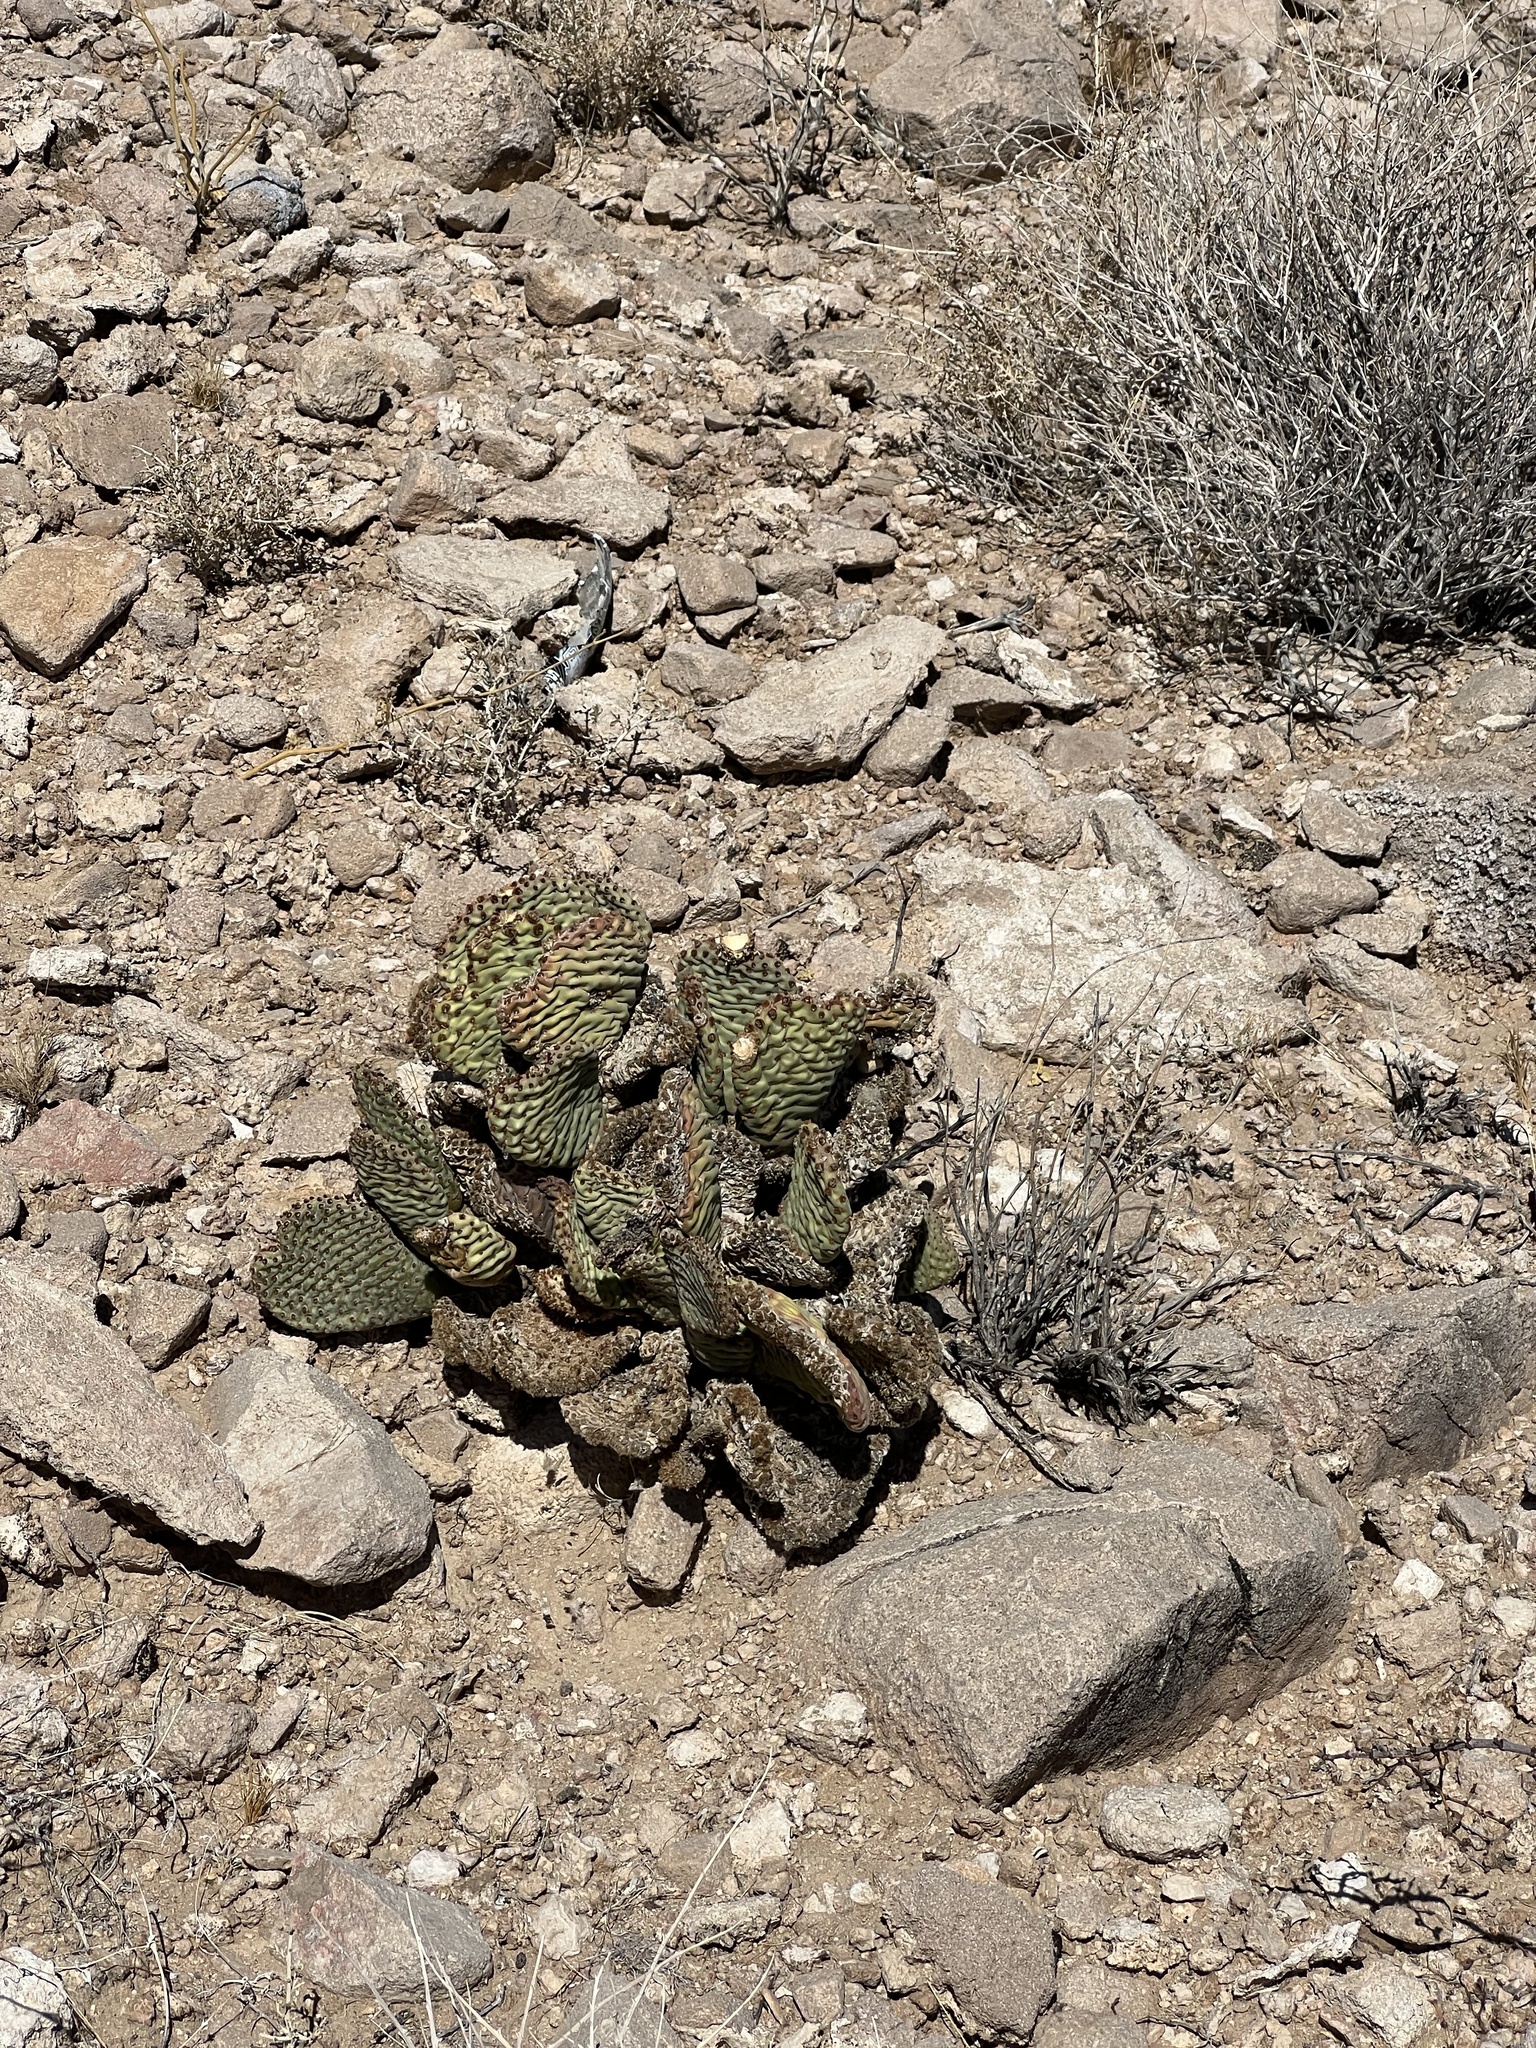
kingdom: Plantae
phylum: Tracheophyta
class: Magnoliopsida
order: Caryophyllales
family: Cactaceae
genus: Opuntia
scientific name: Opuntia basilaris
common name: Beavertail prickly-pear
